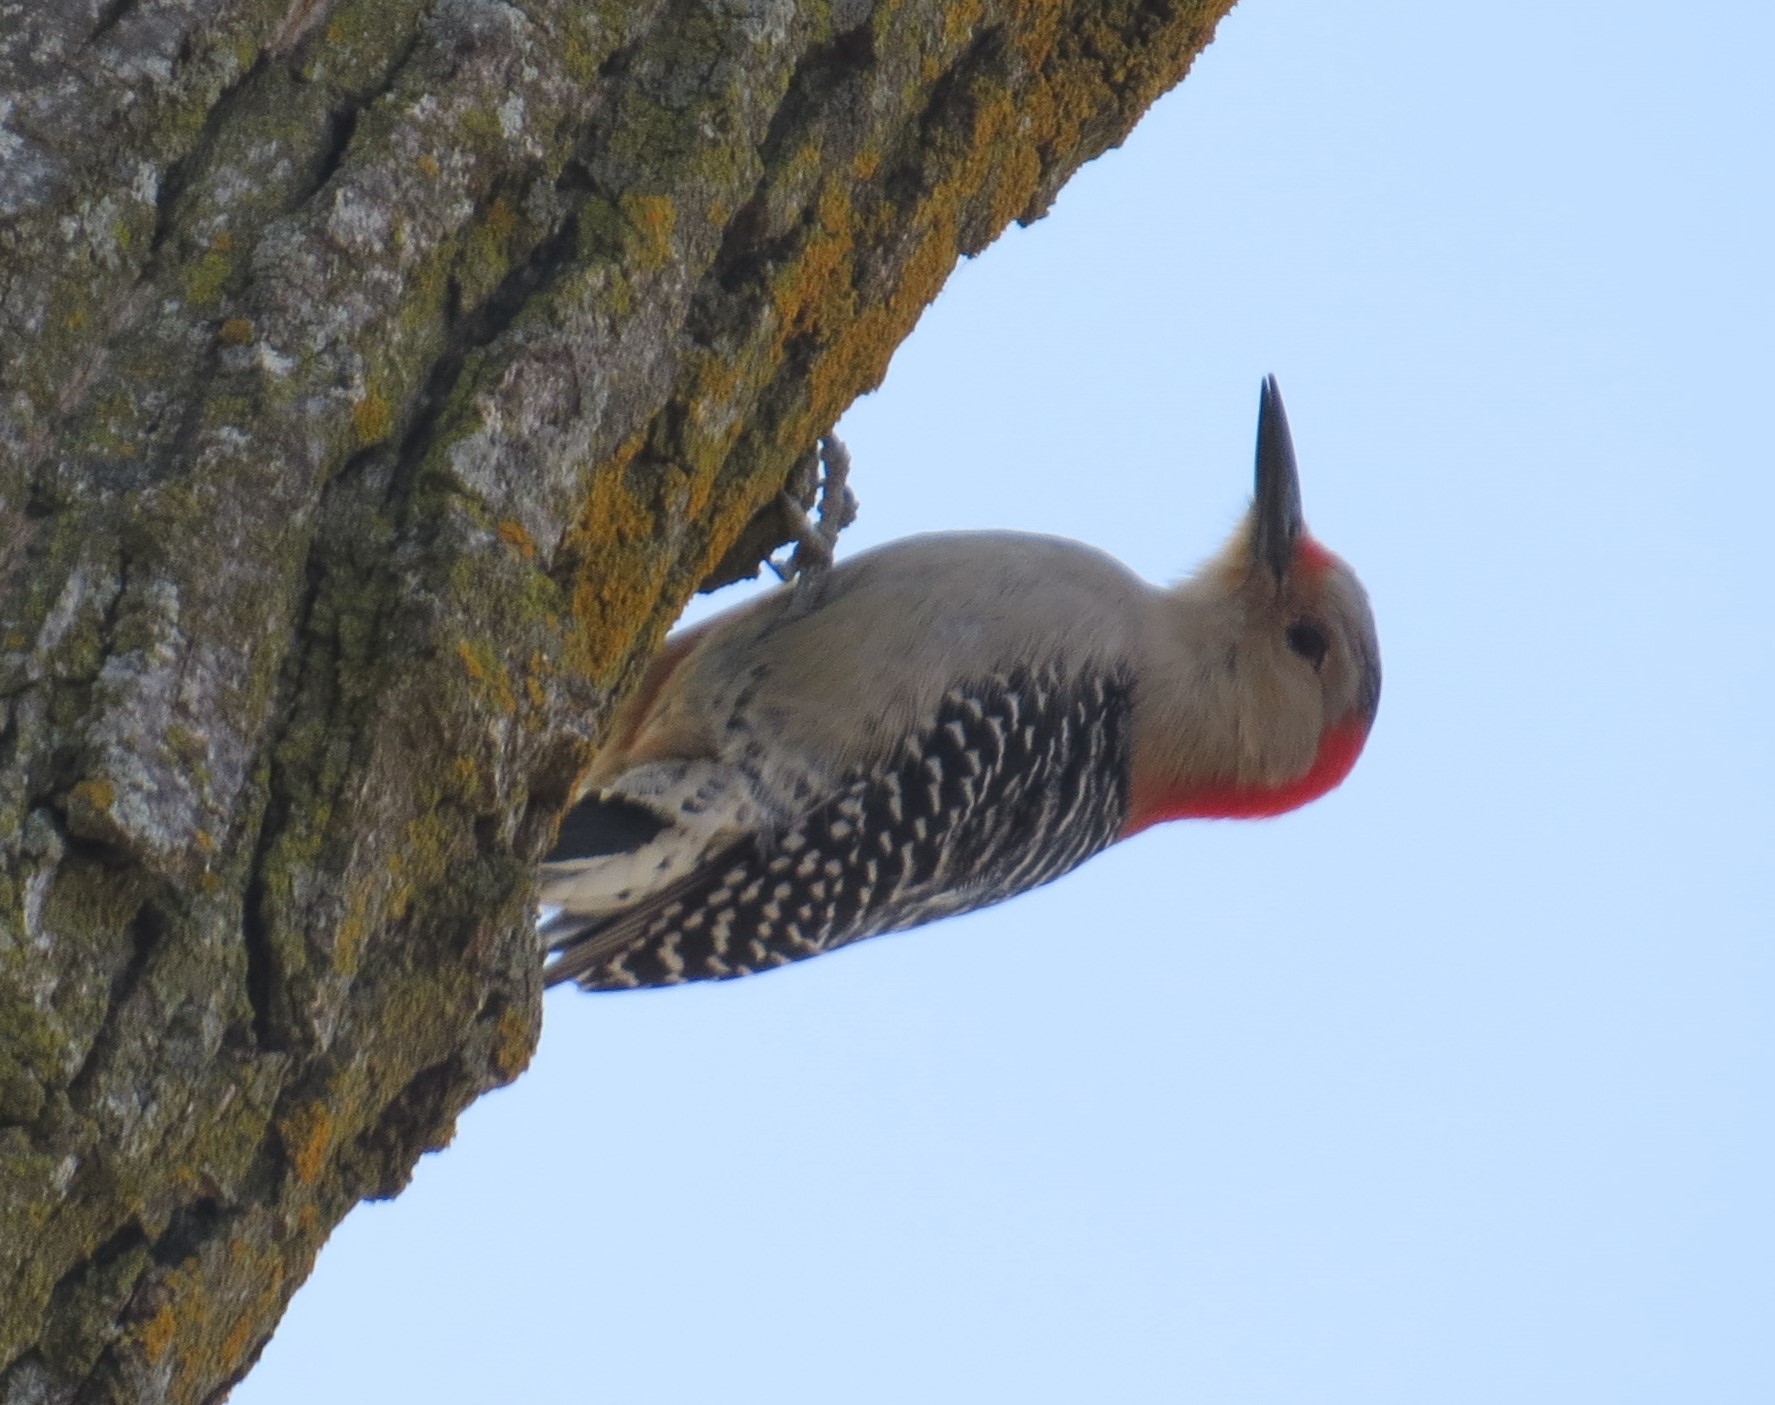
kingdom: Animalia
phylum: Chordata
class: Aves
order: Piciformes
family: Picidae
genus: Melanerpes
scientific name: Melanerpes carolinus
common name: Red-bellied woodpecker
